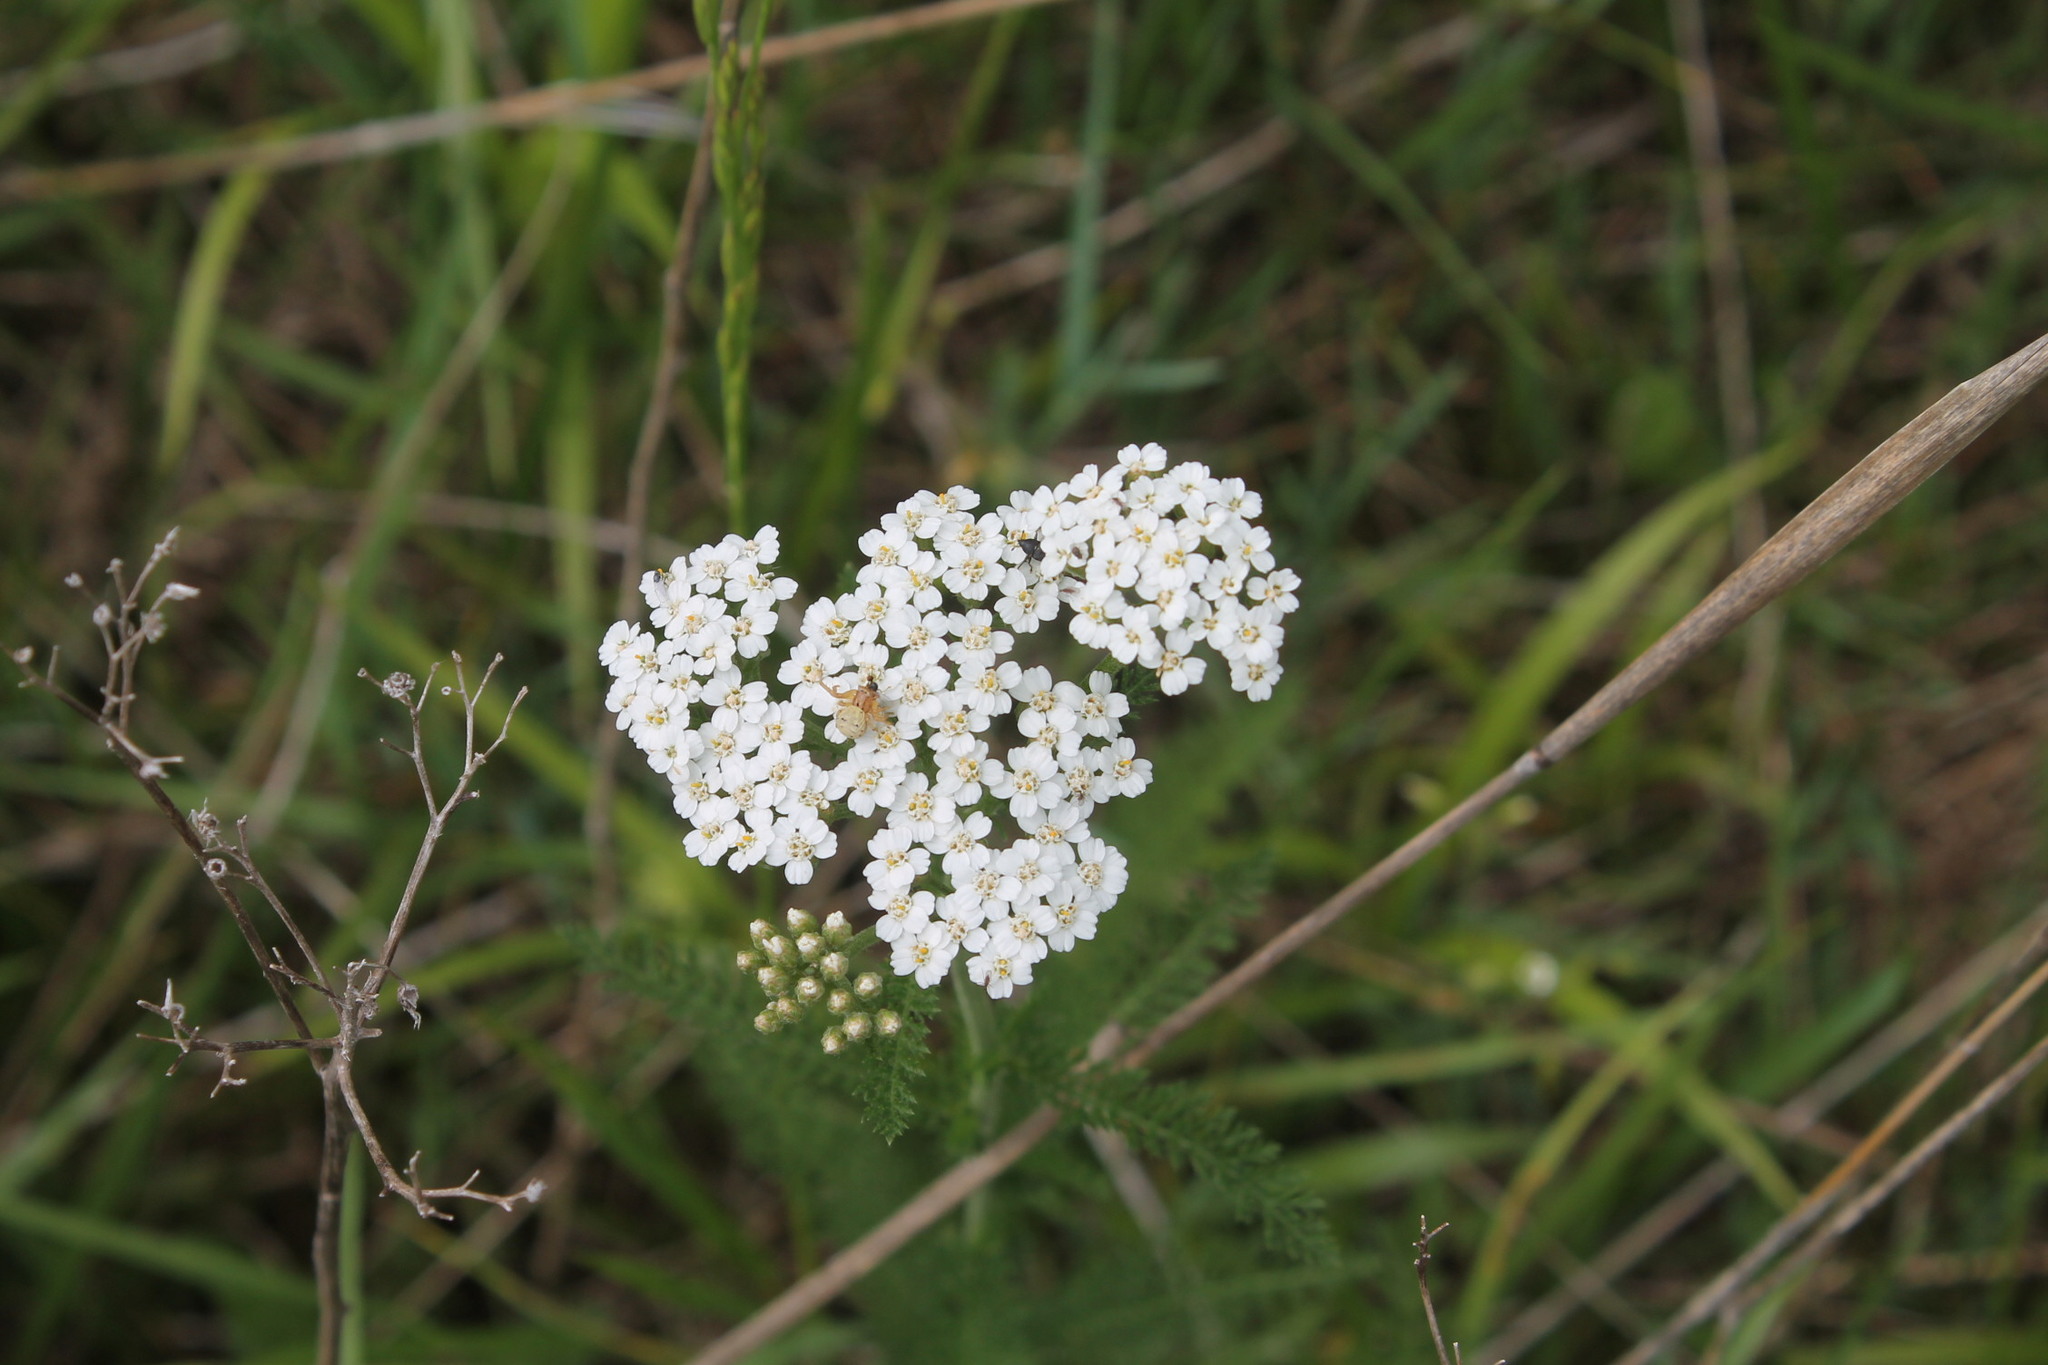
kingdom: Plantae
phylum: Tracheophyta
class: Magnoliopsida
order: Asterales
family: Asteraceae
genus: Achillea
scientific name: Achillea millefolium
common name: Yarrow
